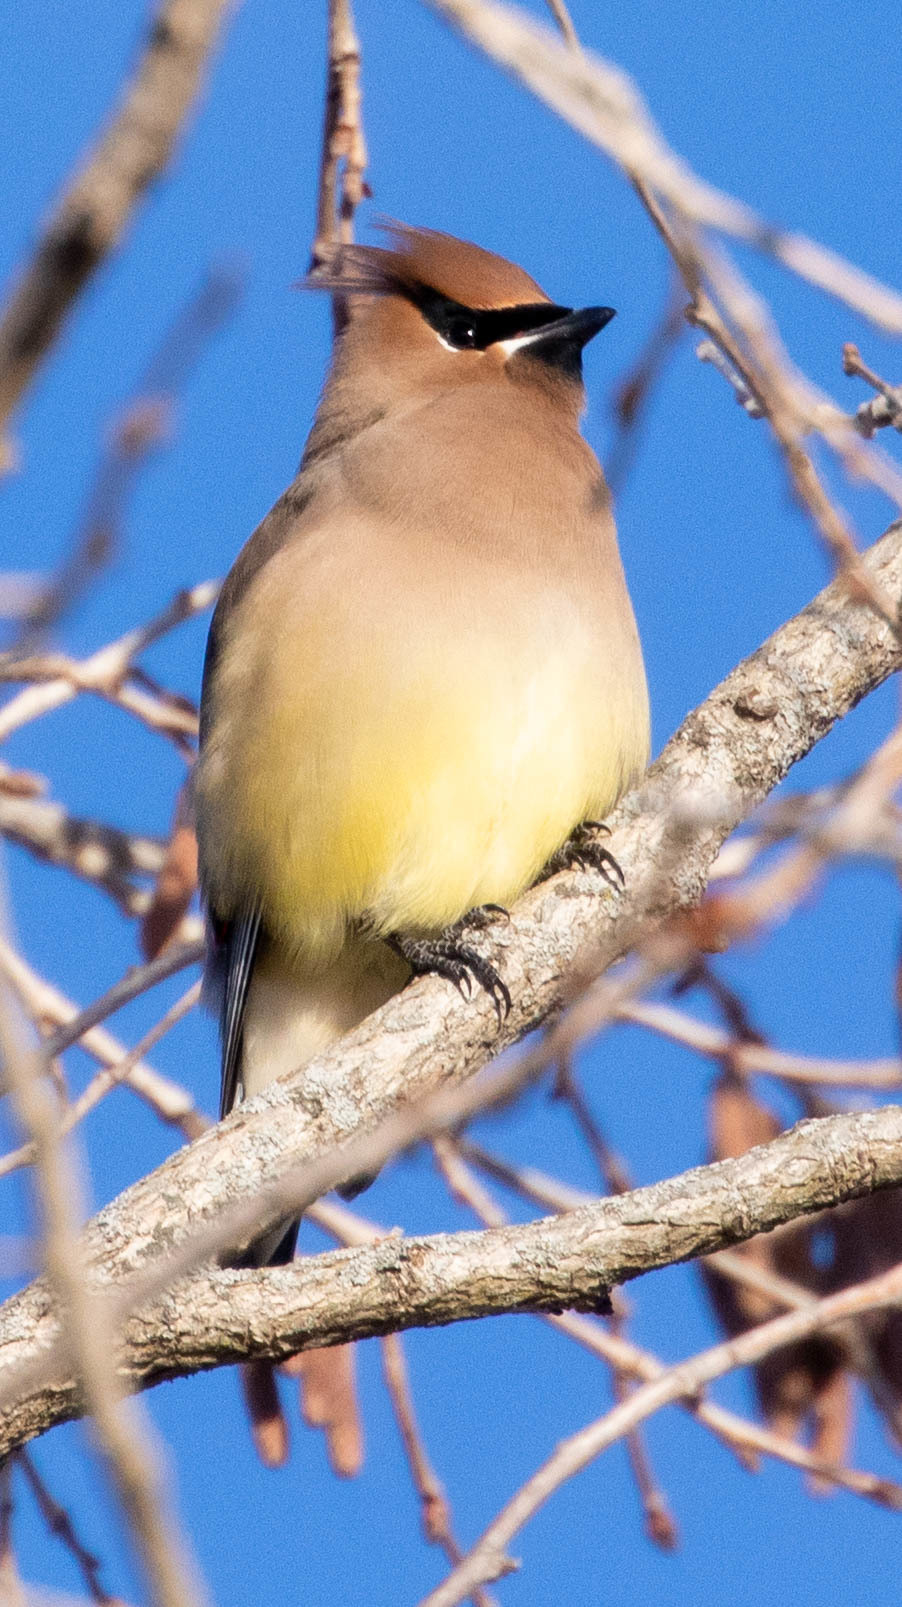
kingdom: Animalia
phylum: Chordata
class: Aves
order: Passeriformes
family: Bombycillidae
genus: Bombycilla
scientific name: Bombycilla cedrorum
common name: Cedar waxwing
